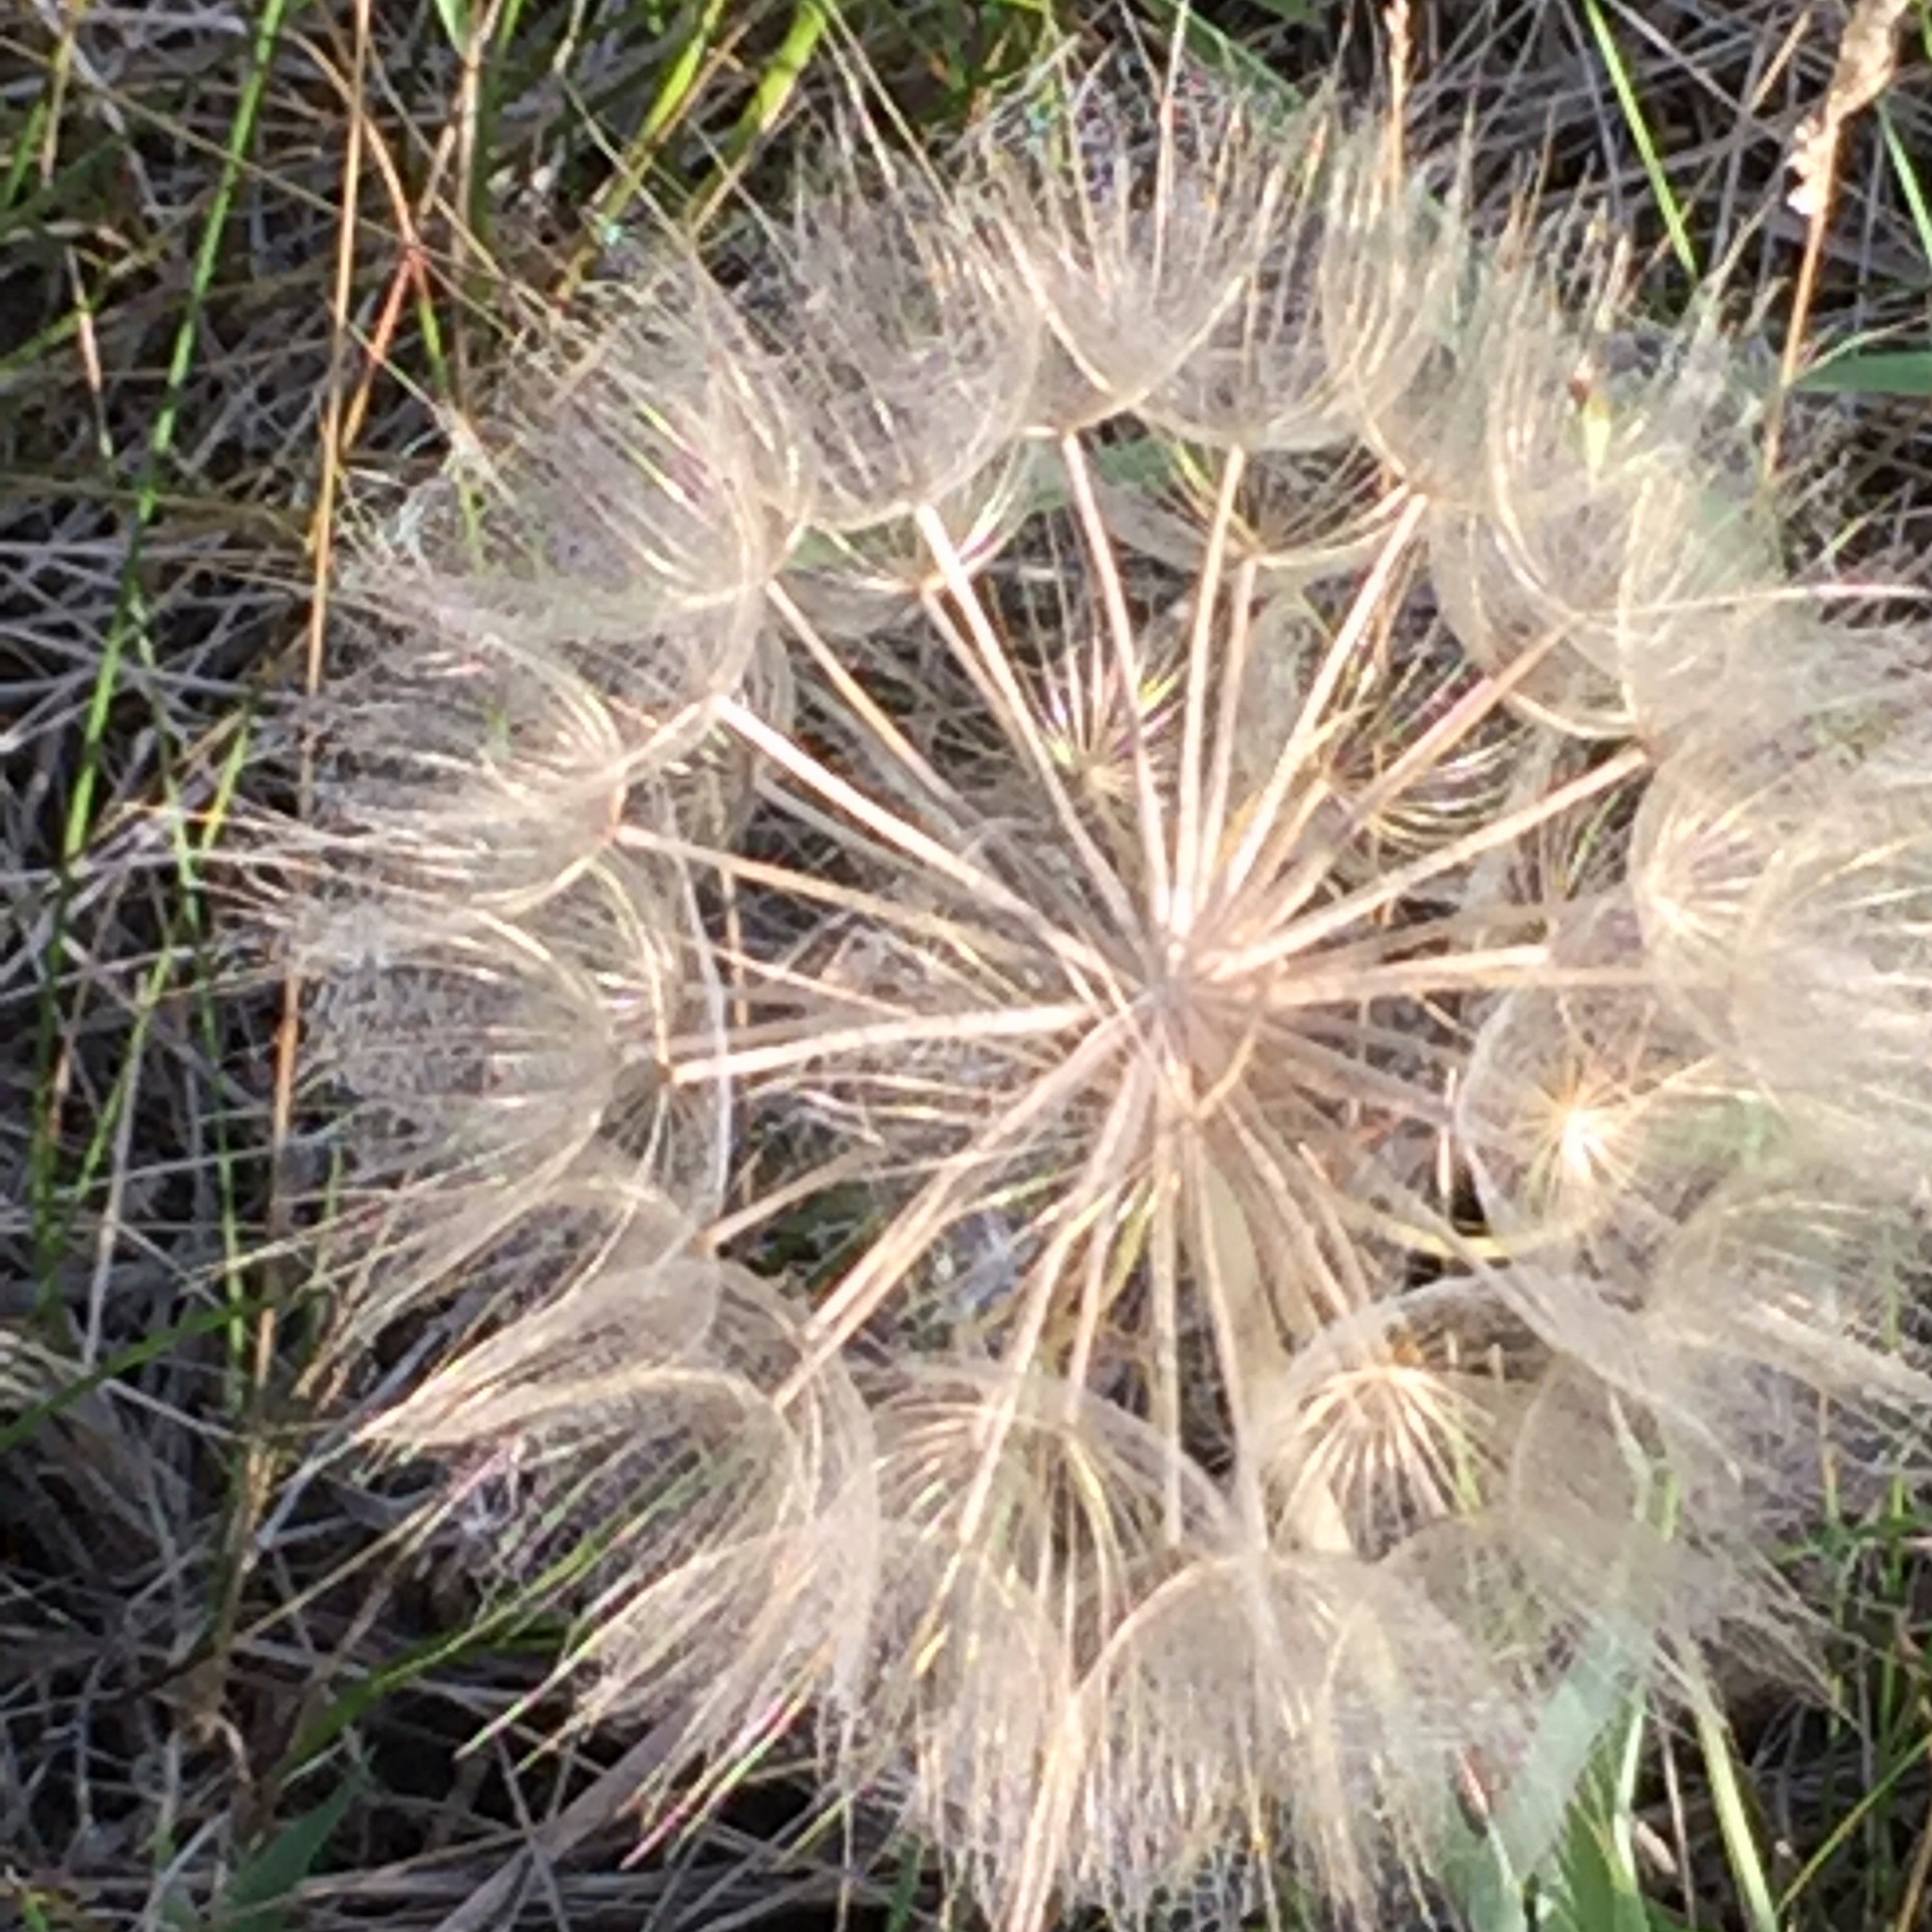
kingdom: Plantae
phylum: Tracheophyta
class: Magnoliopsida
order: Asterales
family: Asteraceae
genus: Tragopogon
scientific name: Tragopogon dubius
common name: Yellow salsify
